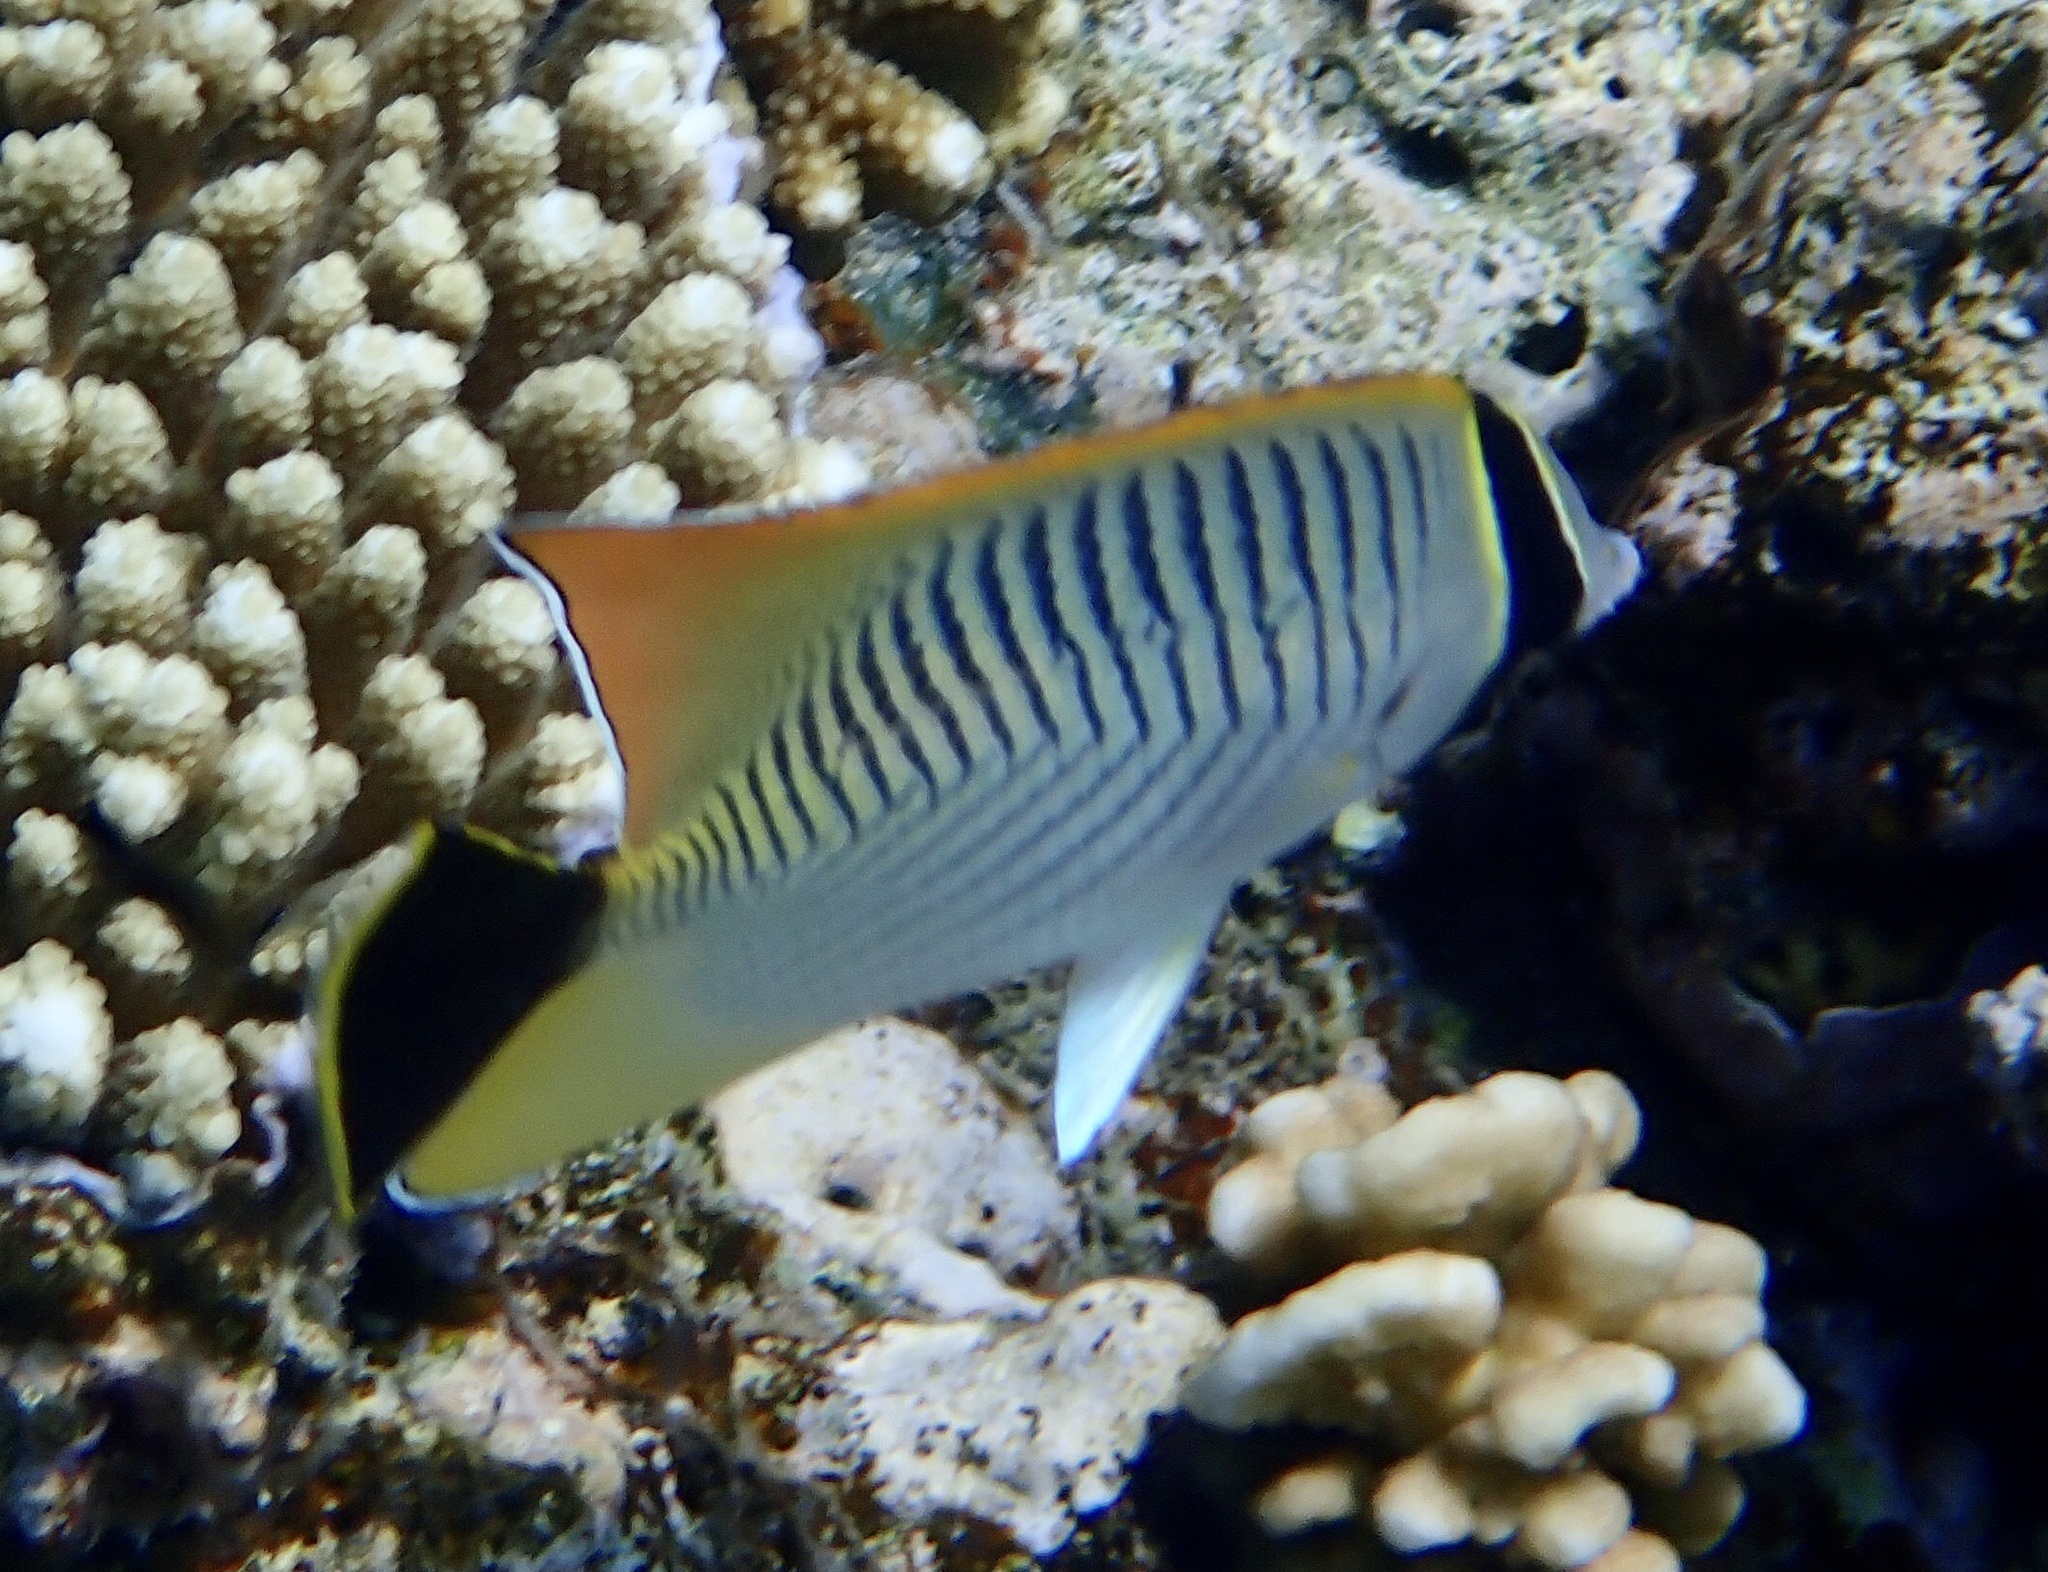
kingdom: Animalia
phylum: Chordata
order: Perciformes
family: Chaetodontidae
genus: Chaetodon
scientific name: Chaetodon trifascialis
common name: Chevroned butterflyfish
